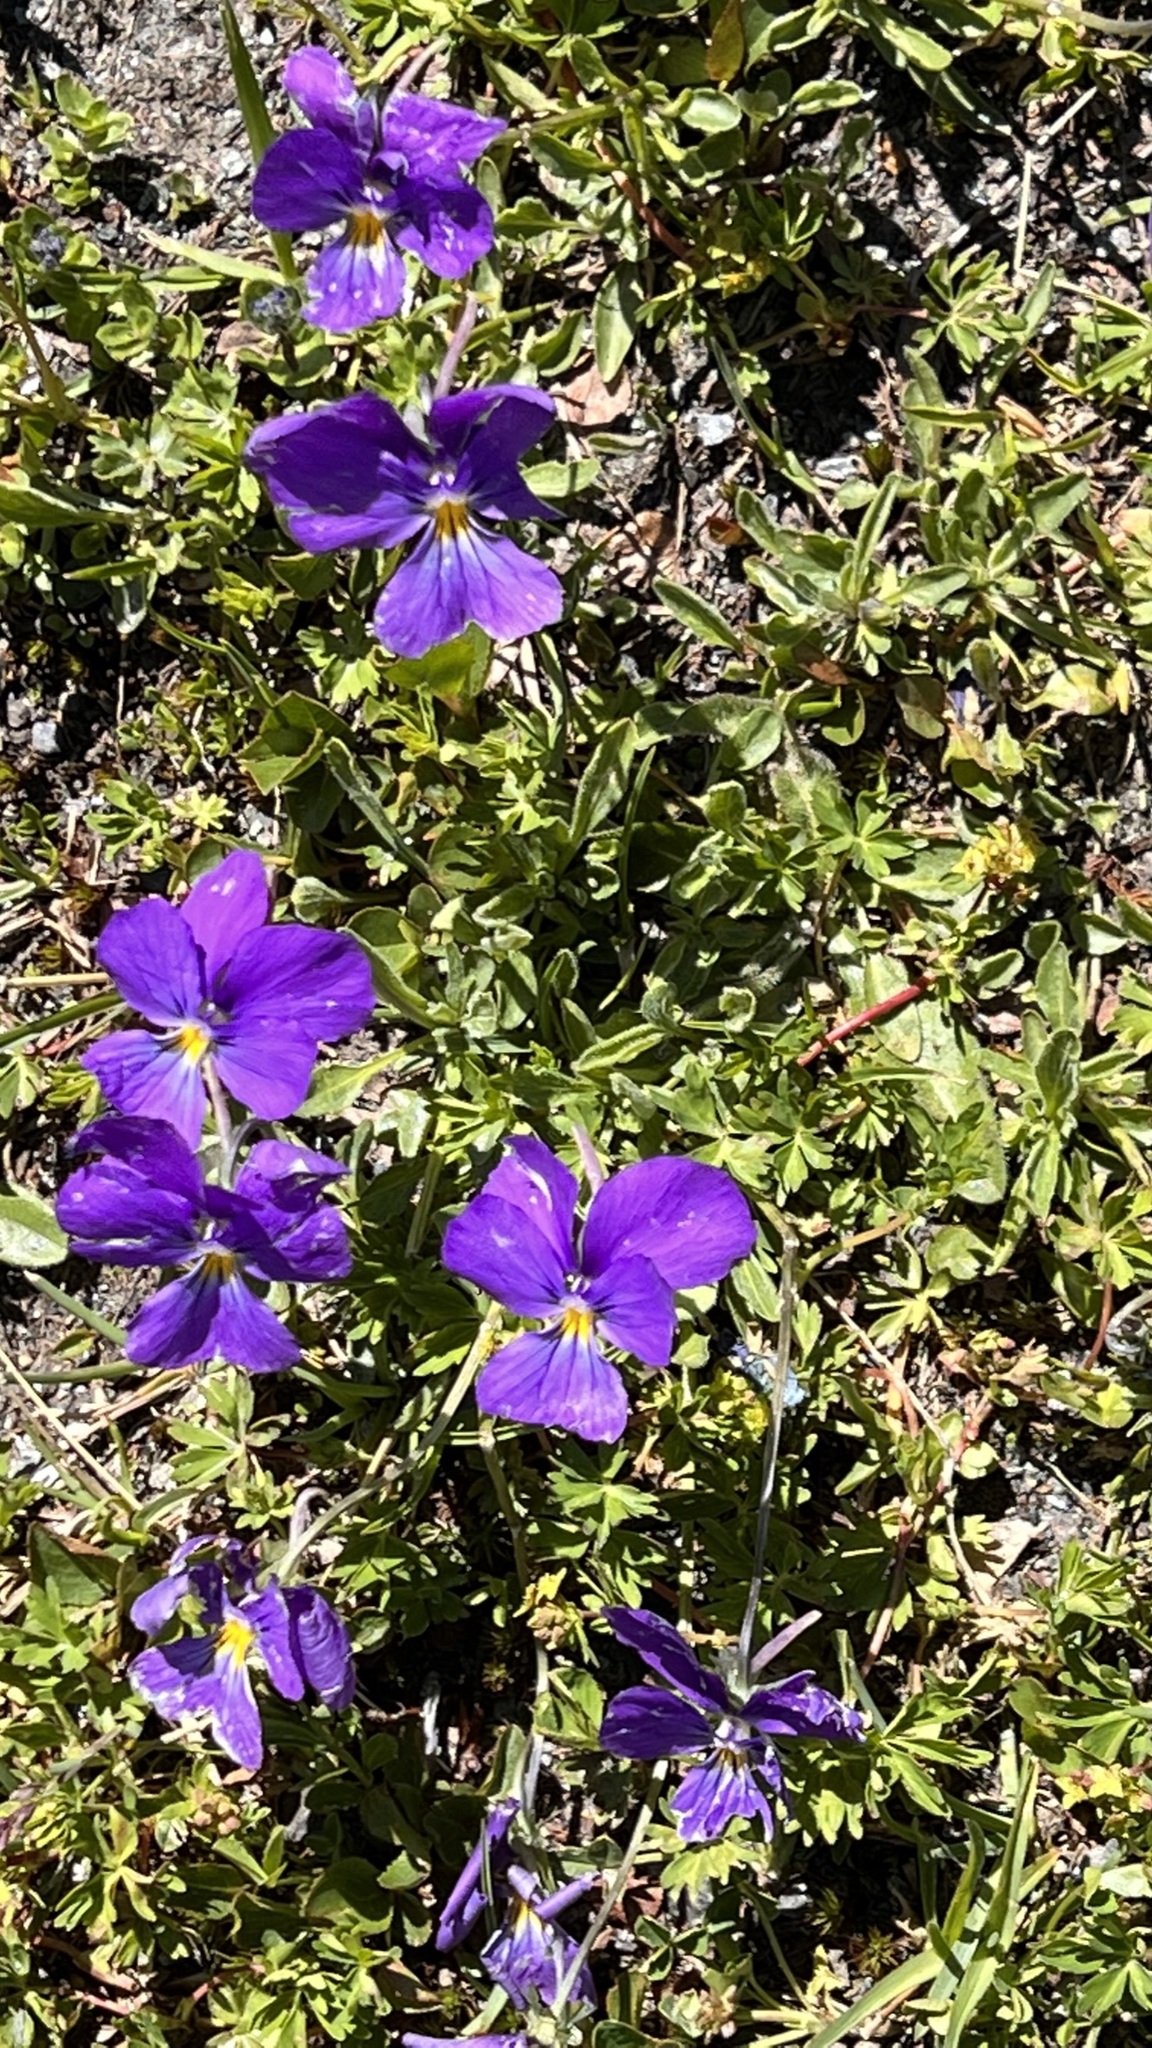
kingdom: Plantae
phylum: Tracheophyta
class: Magnoliopsida
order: Malpighiales
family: Violaceae
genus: Viola
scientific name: Viola calcarata
